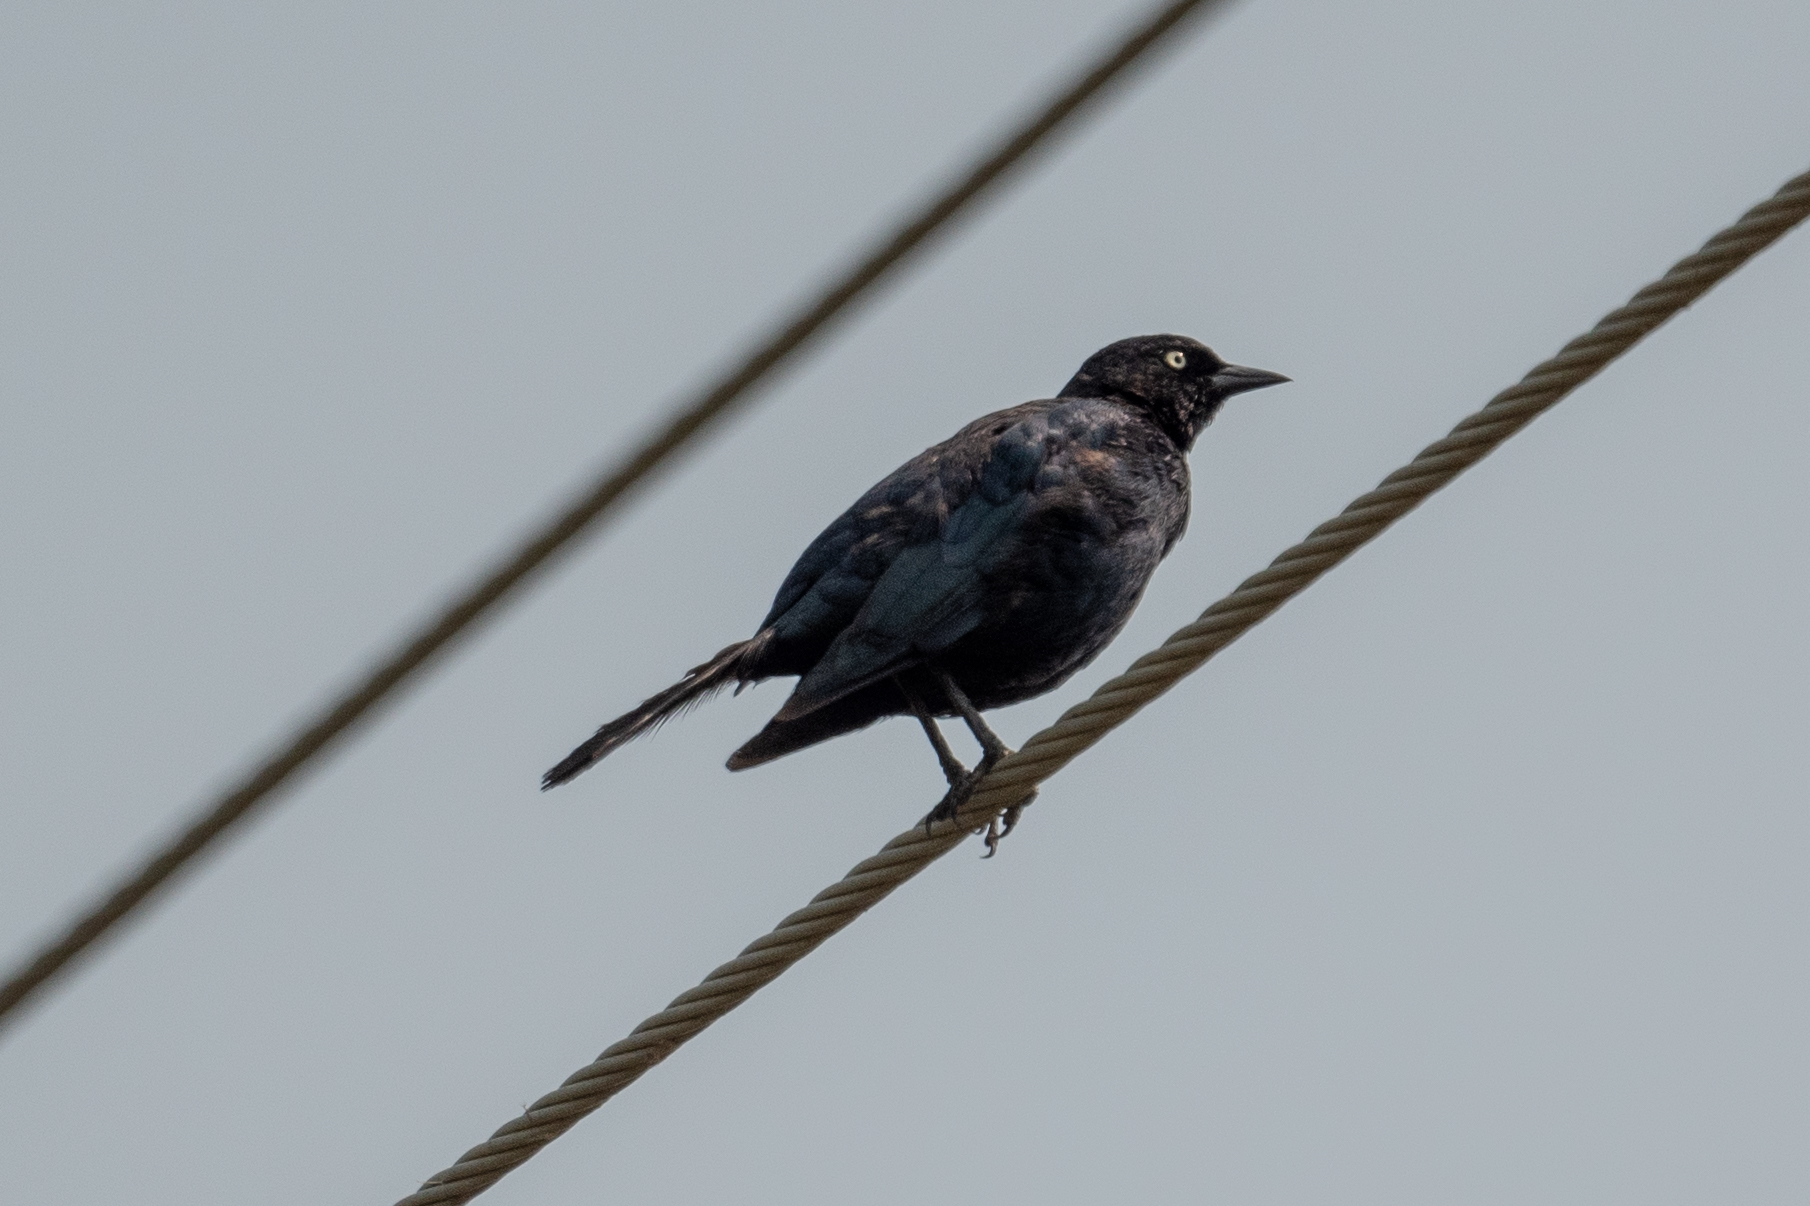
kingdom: Animalia
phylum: Chordata
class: Aves
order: Passeriformes
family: Icteridae
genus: Euphagus
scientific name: Euphagus cyanocephalus
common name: Brewer's blackbird
